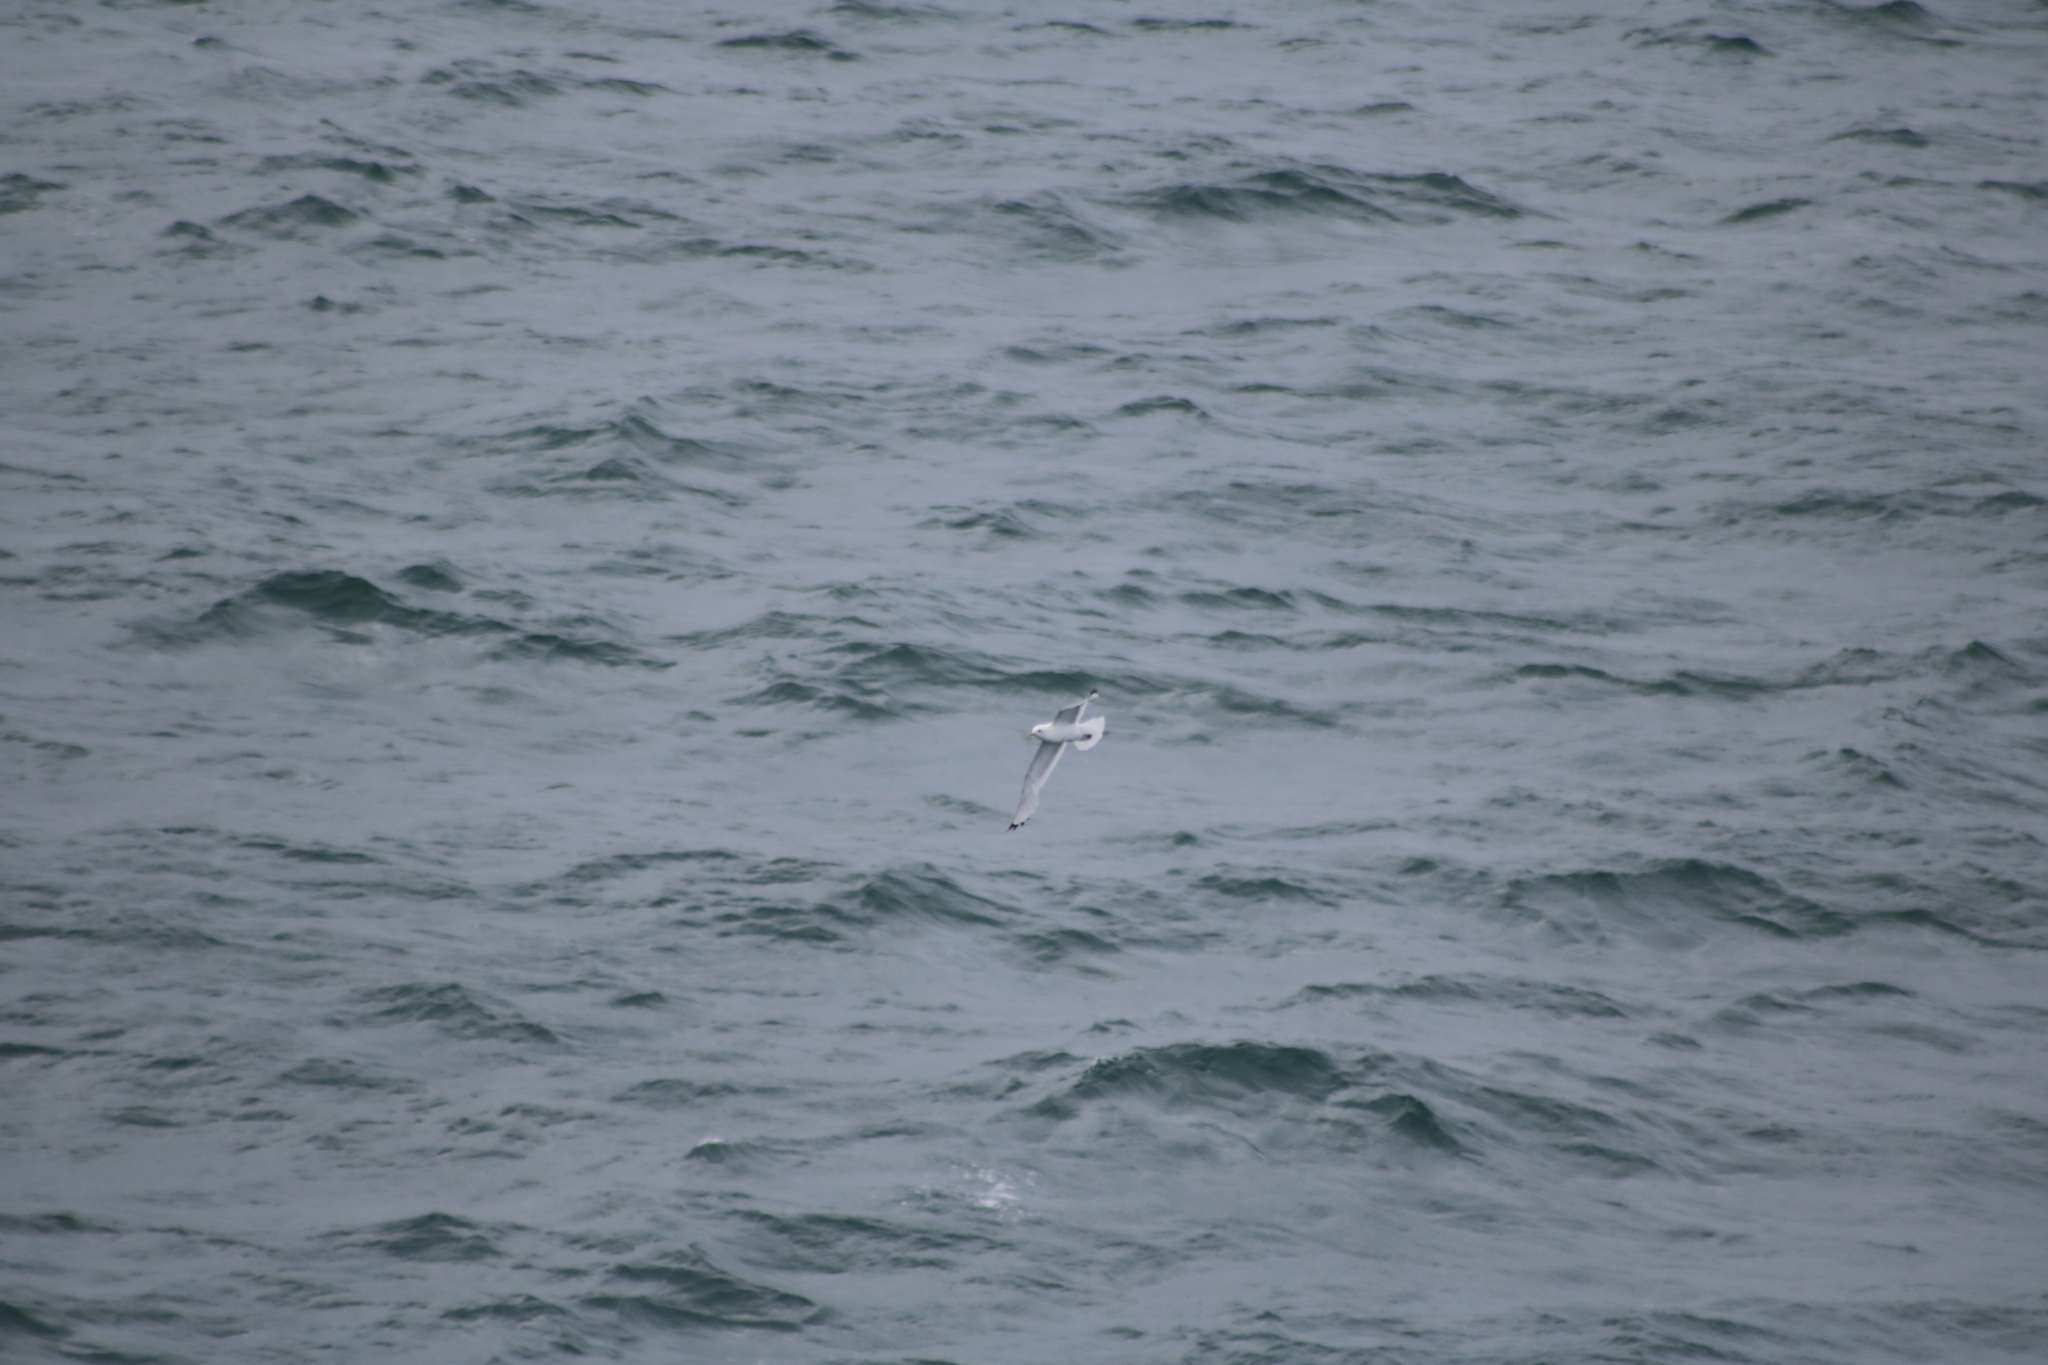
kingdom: Animalia
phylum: Chordata
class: Aves
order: Charadriiformes
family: Laridae
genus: Rissa
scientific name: Rissa tridactyla
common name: Black-legged kittiwake
